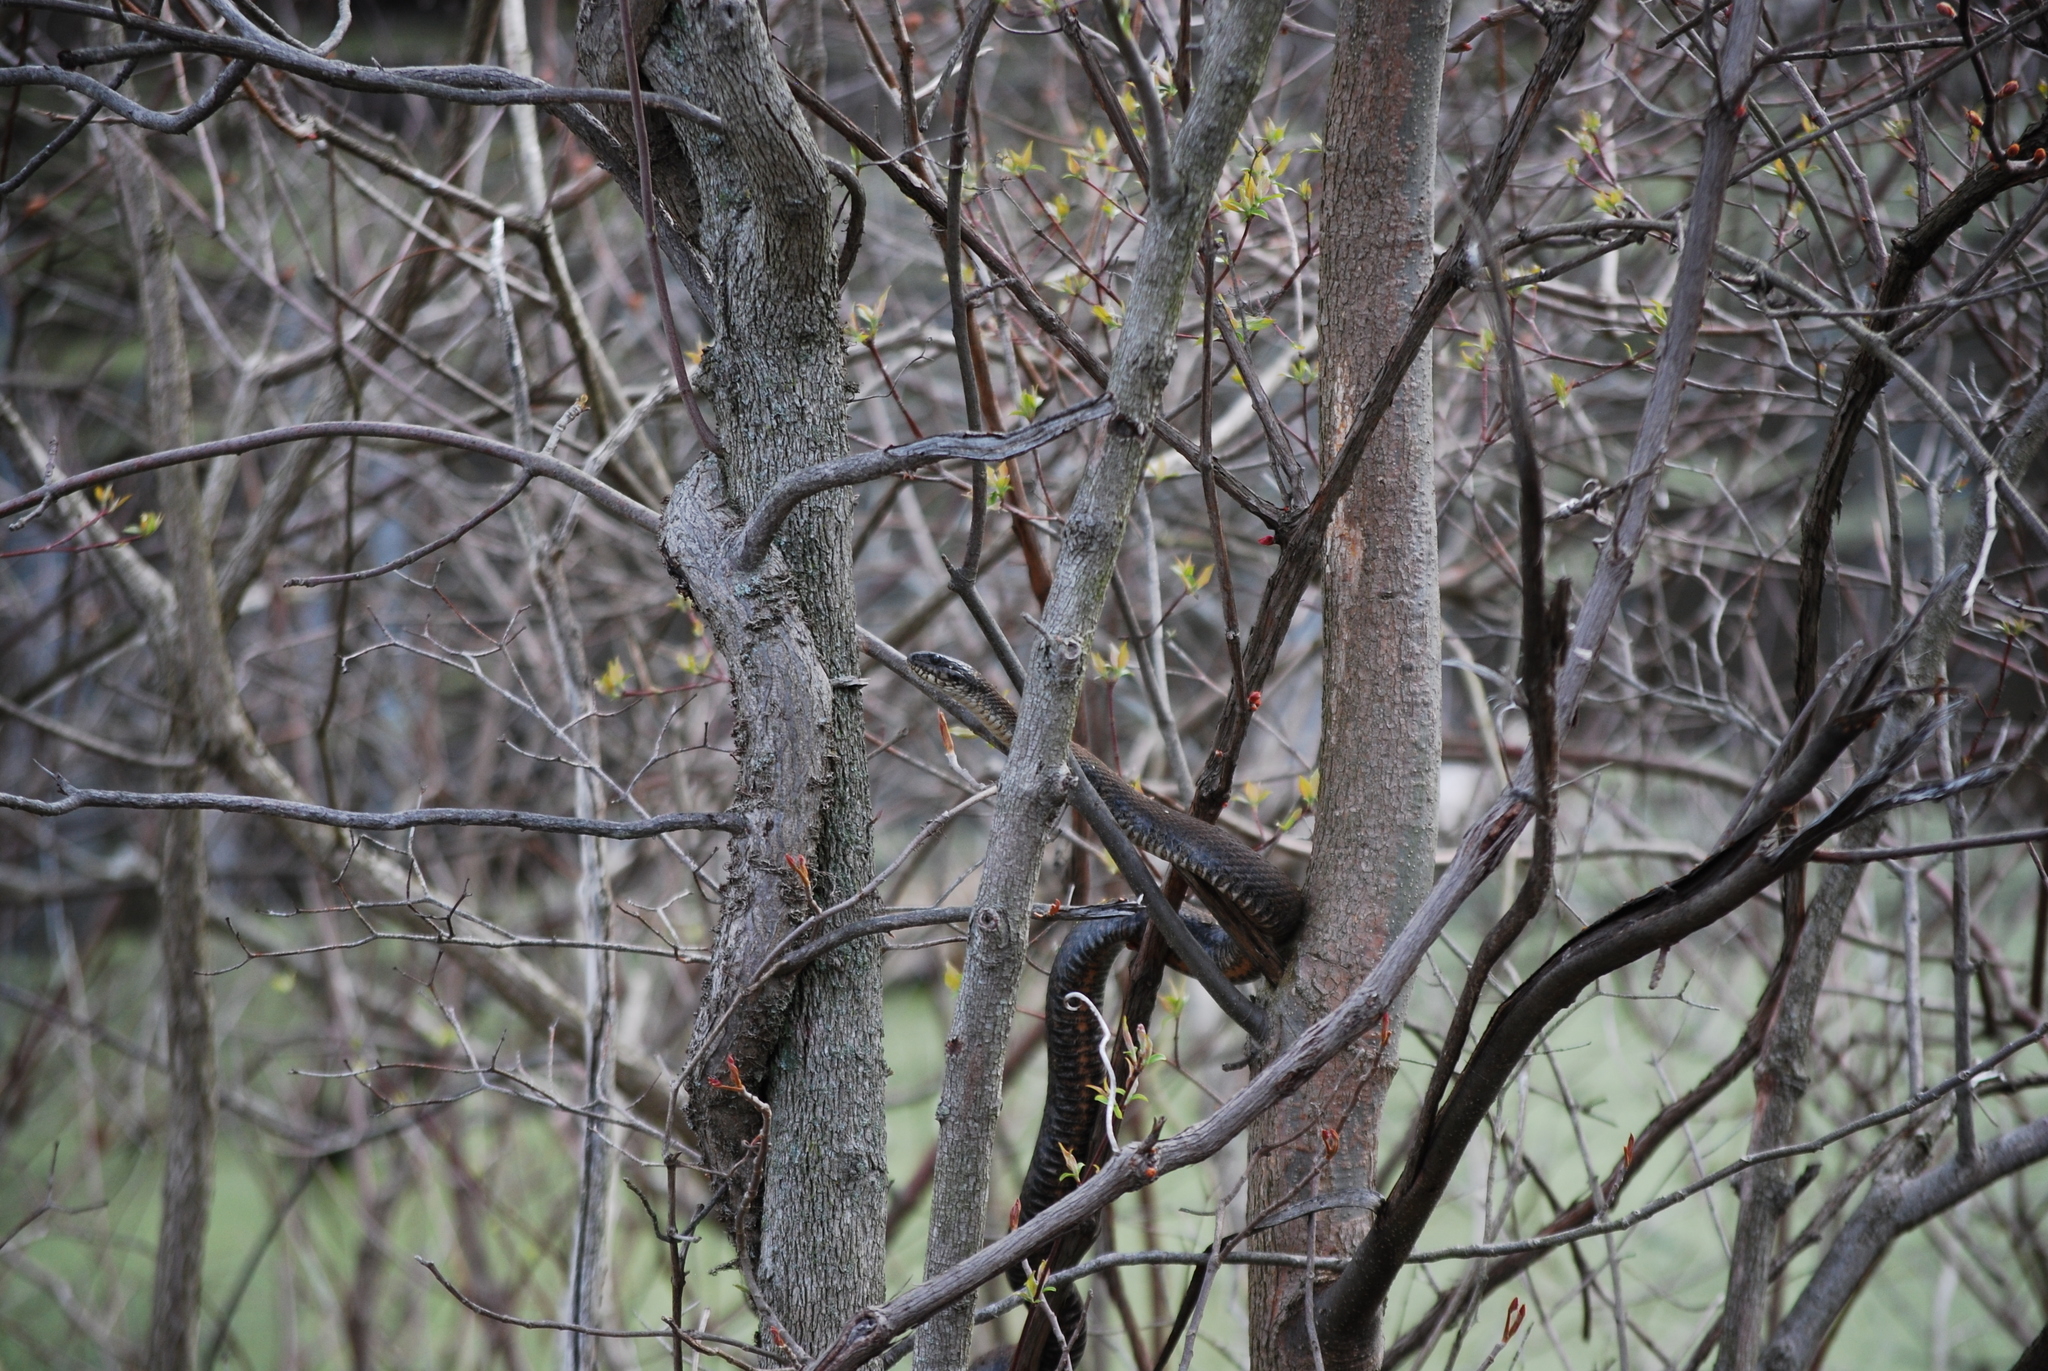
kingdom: Animalia
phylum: Chordata
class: Squamata
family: Colubridae
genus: Nerodia
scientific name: Nerodia sipedon
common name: Northern water snake
